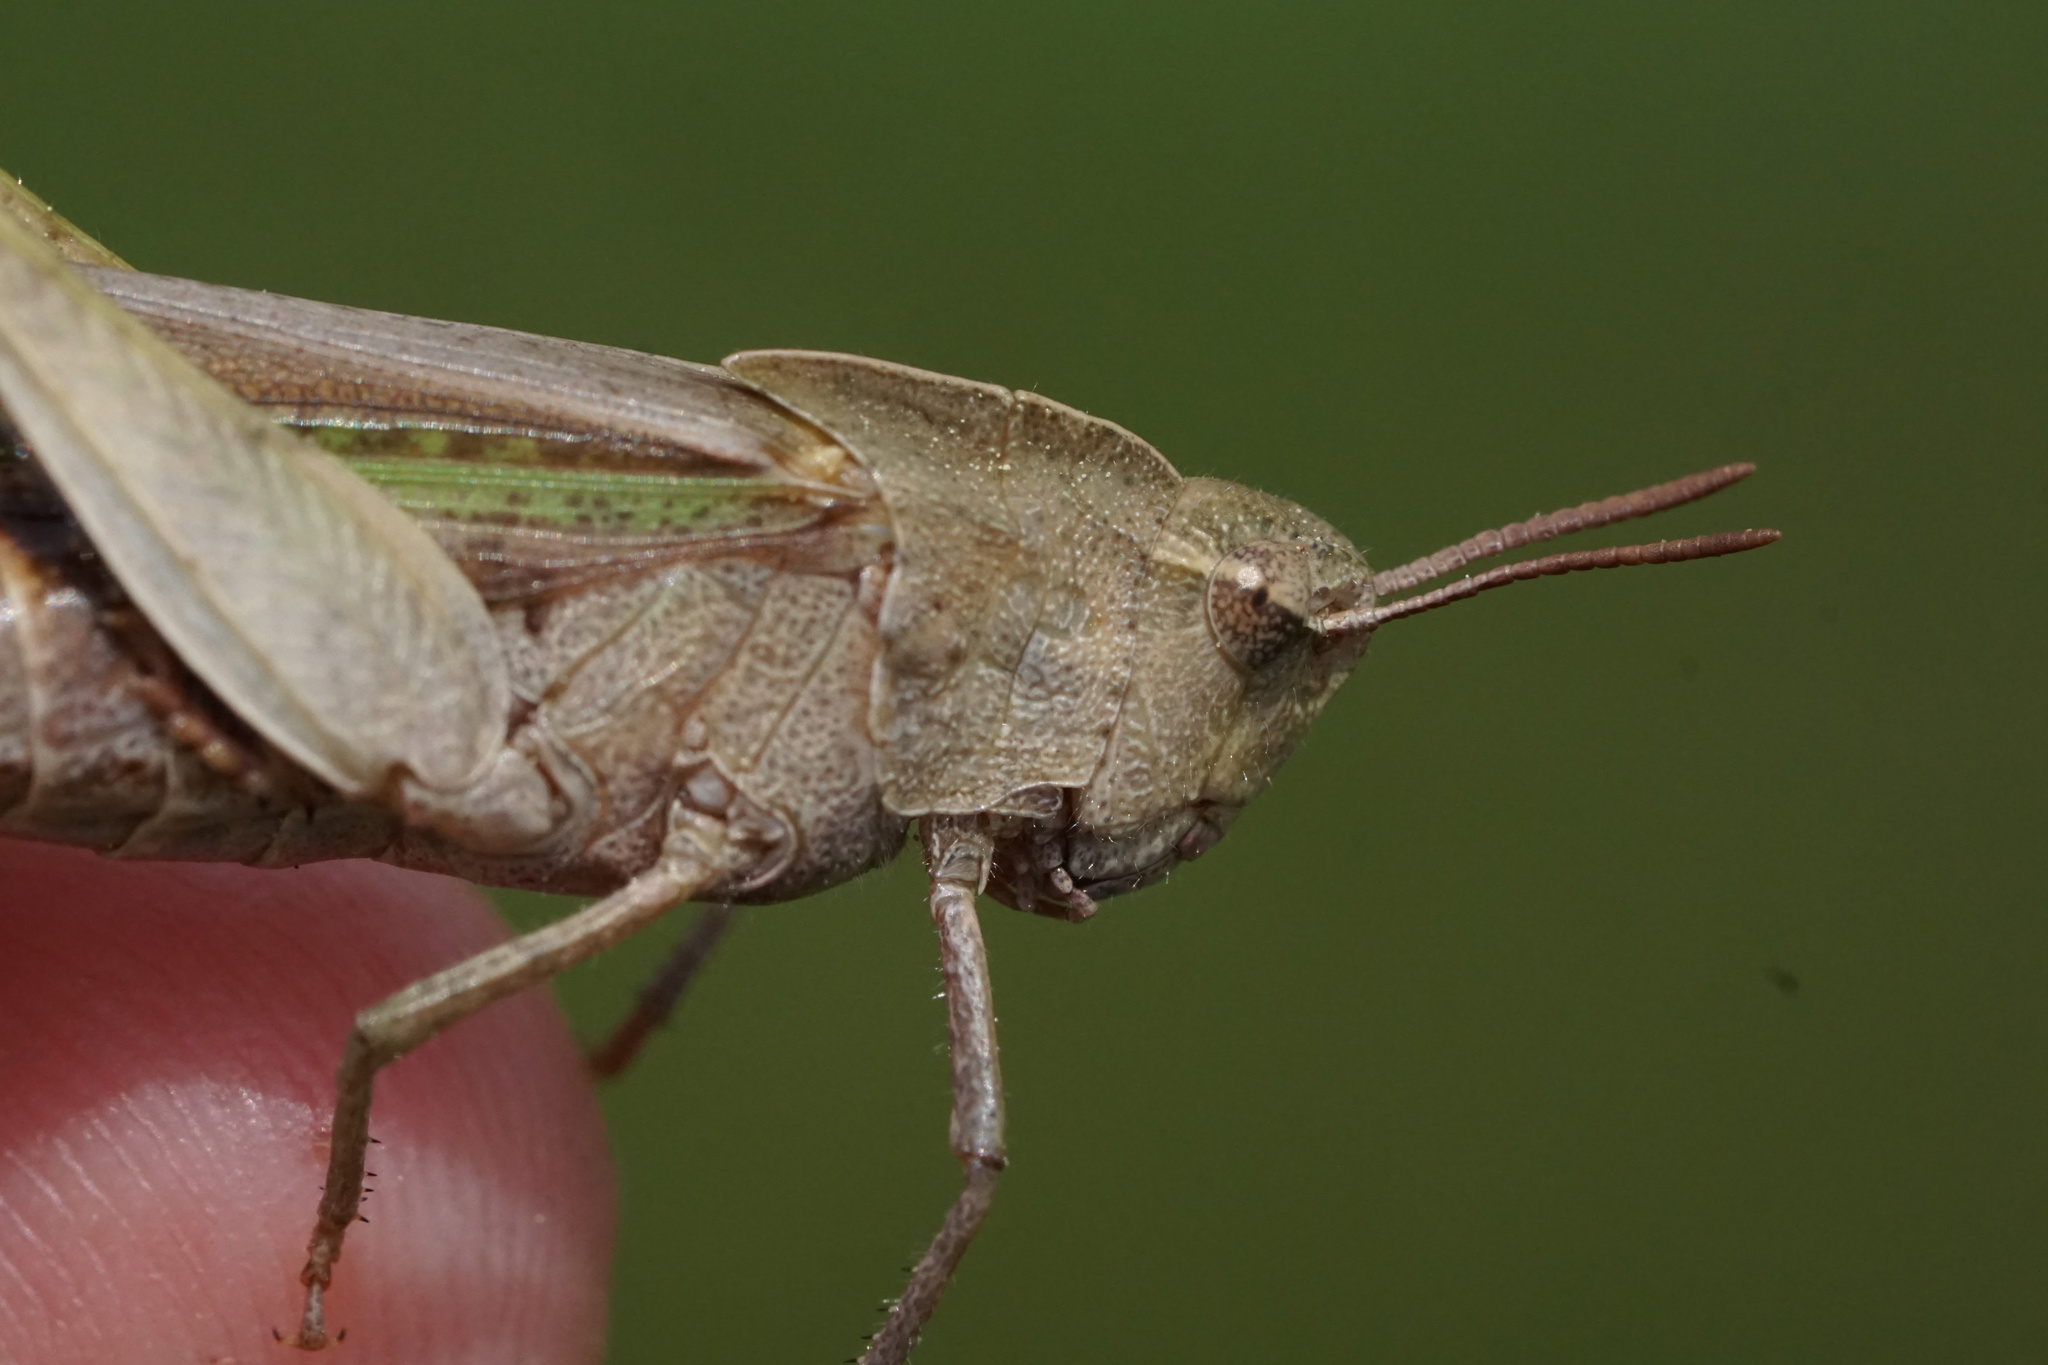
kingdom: Animalia
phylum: Arthropoda
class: Insecta
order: Orthoptera
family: Acrididae
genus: Chortophaga
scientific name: Chortophaga viridifasciata
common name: Green-striped grasshopper
